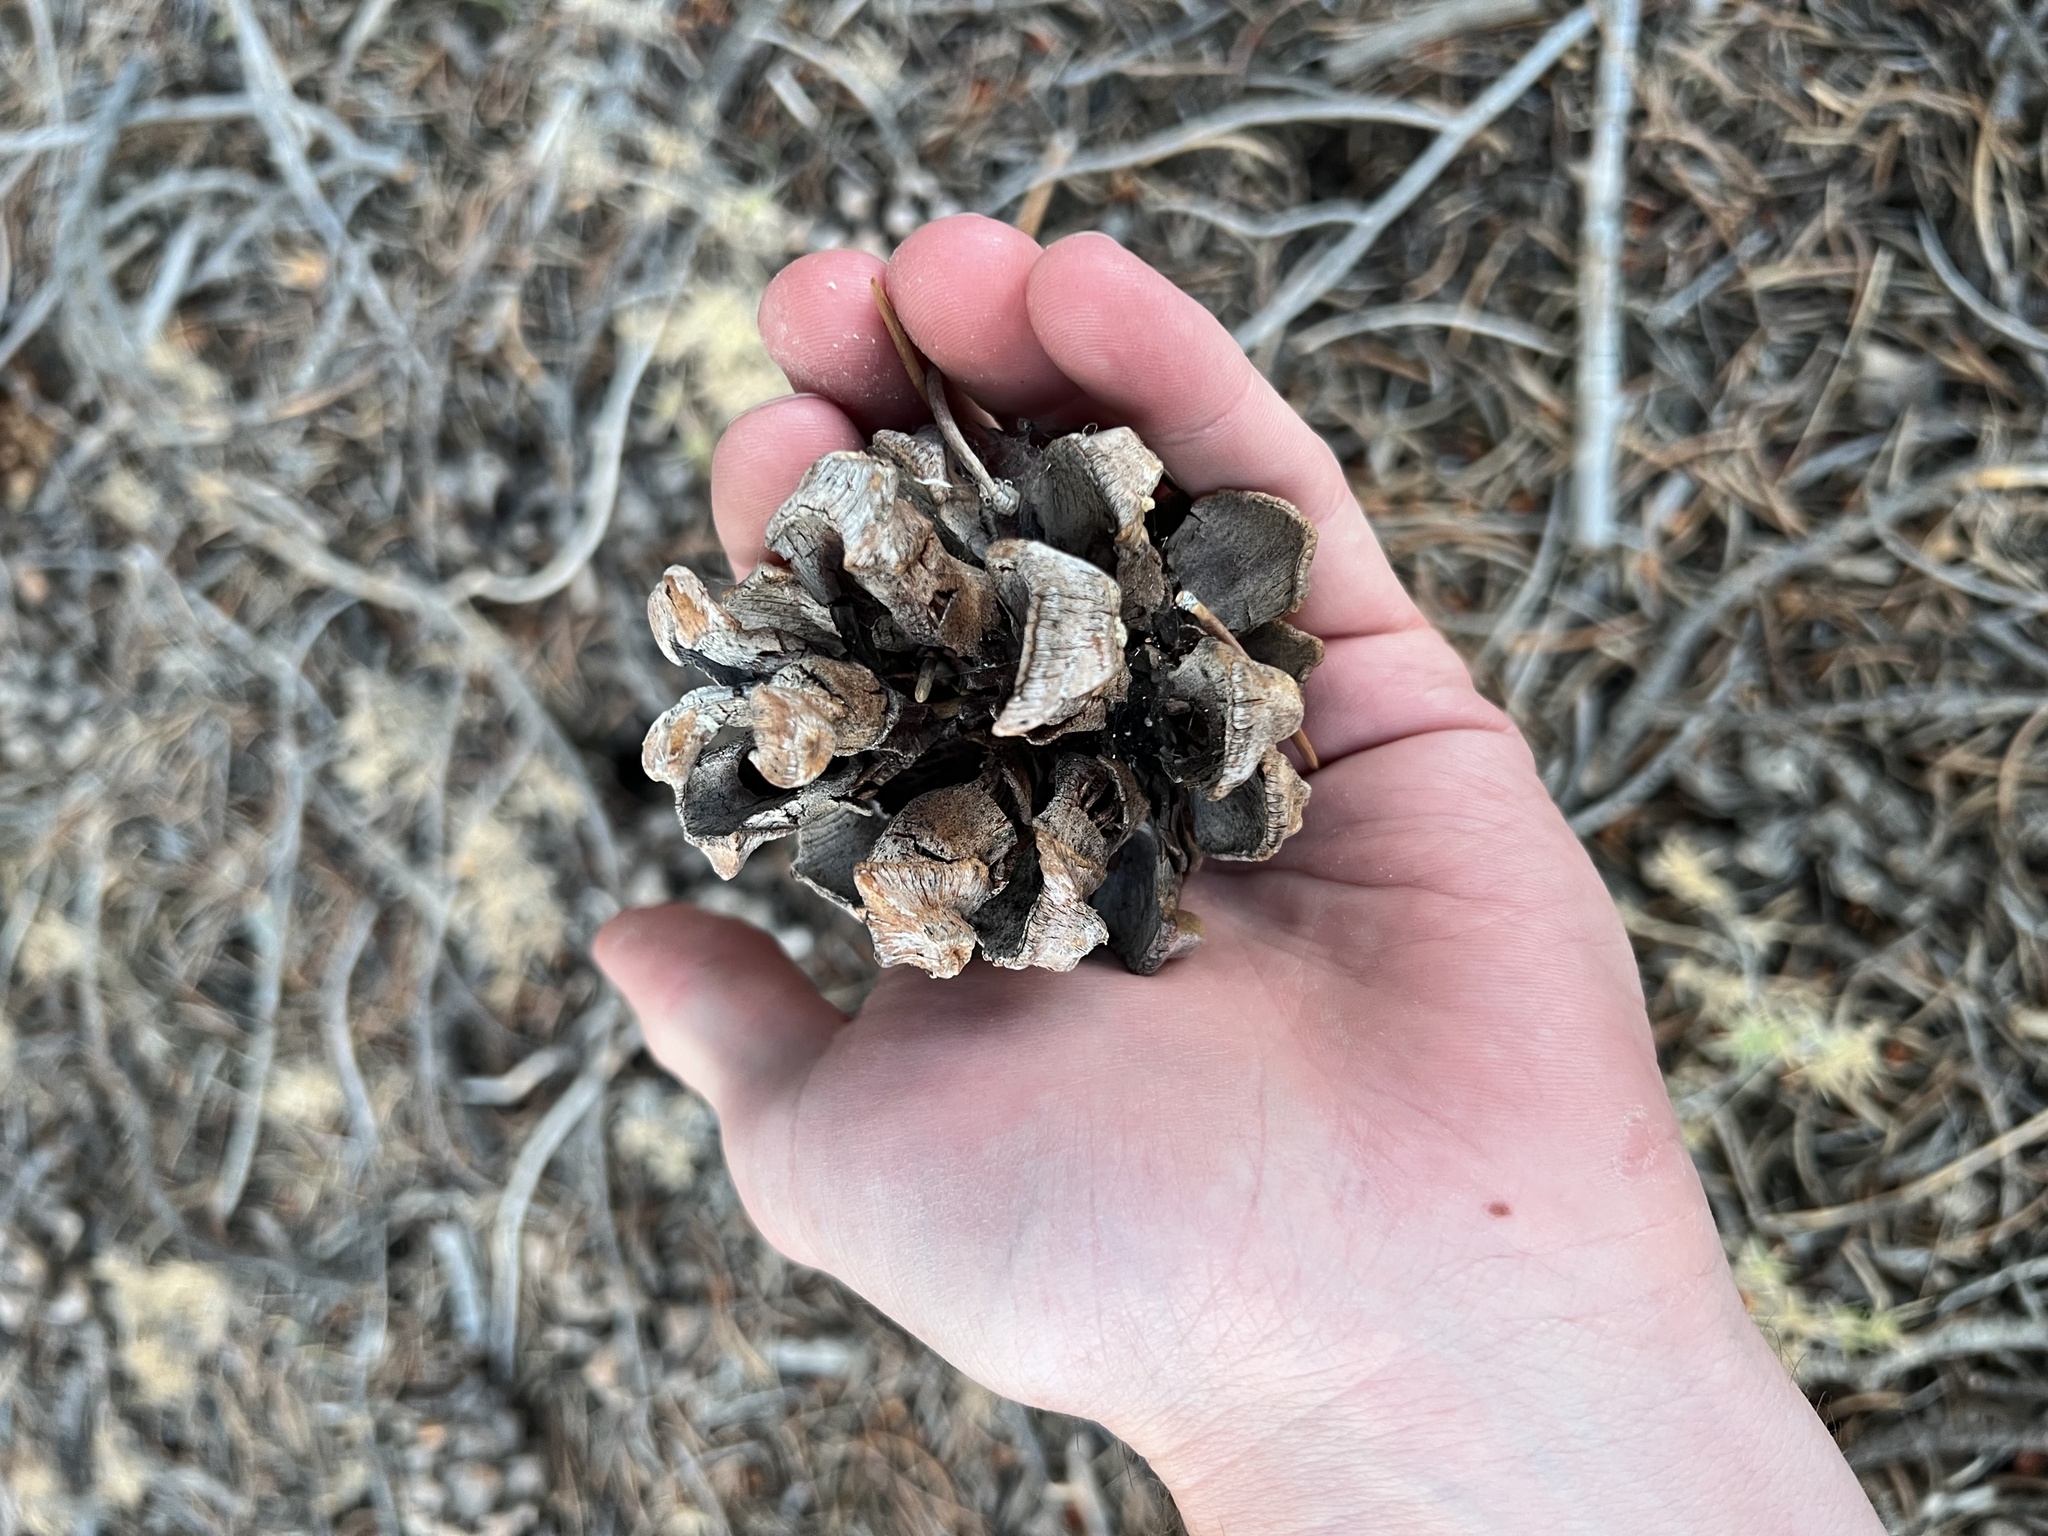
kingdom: Plantae
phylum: Tracheophyta
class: Pinopsida
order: Pinales
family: Pinaceae
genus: Pinus
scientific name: Pinus monophylla
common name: One-leaved nut pine
